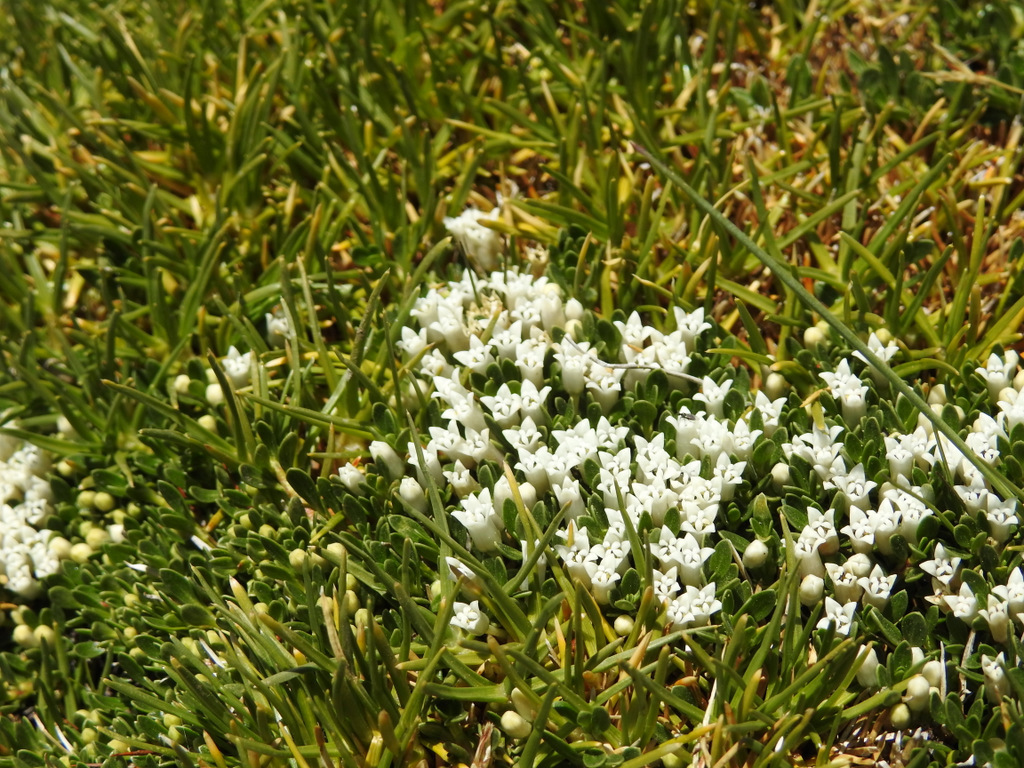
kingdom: Plantae
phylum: Tracheophyta
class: Magnoliopsida
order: Rosales
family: Rhamnaceae
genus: Discaria
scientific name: Discaria nana
